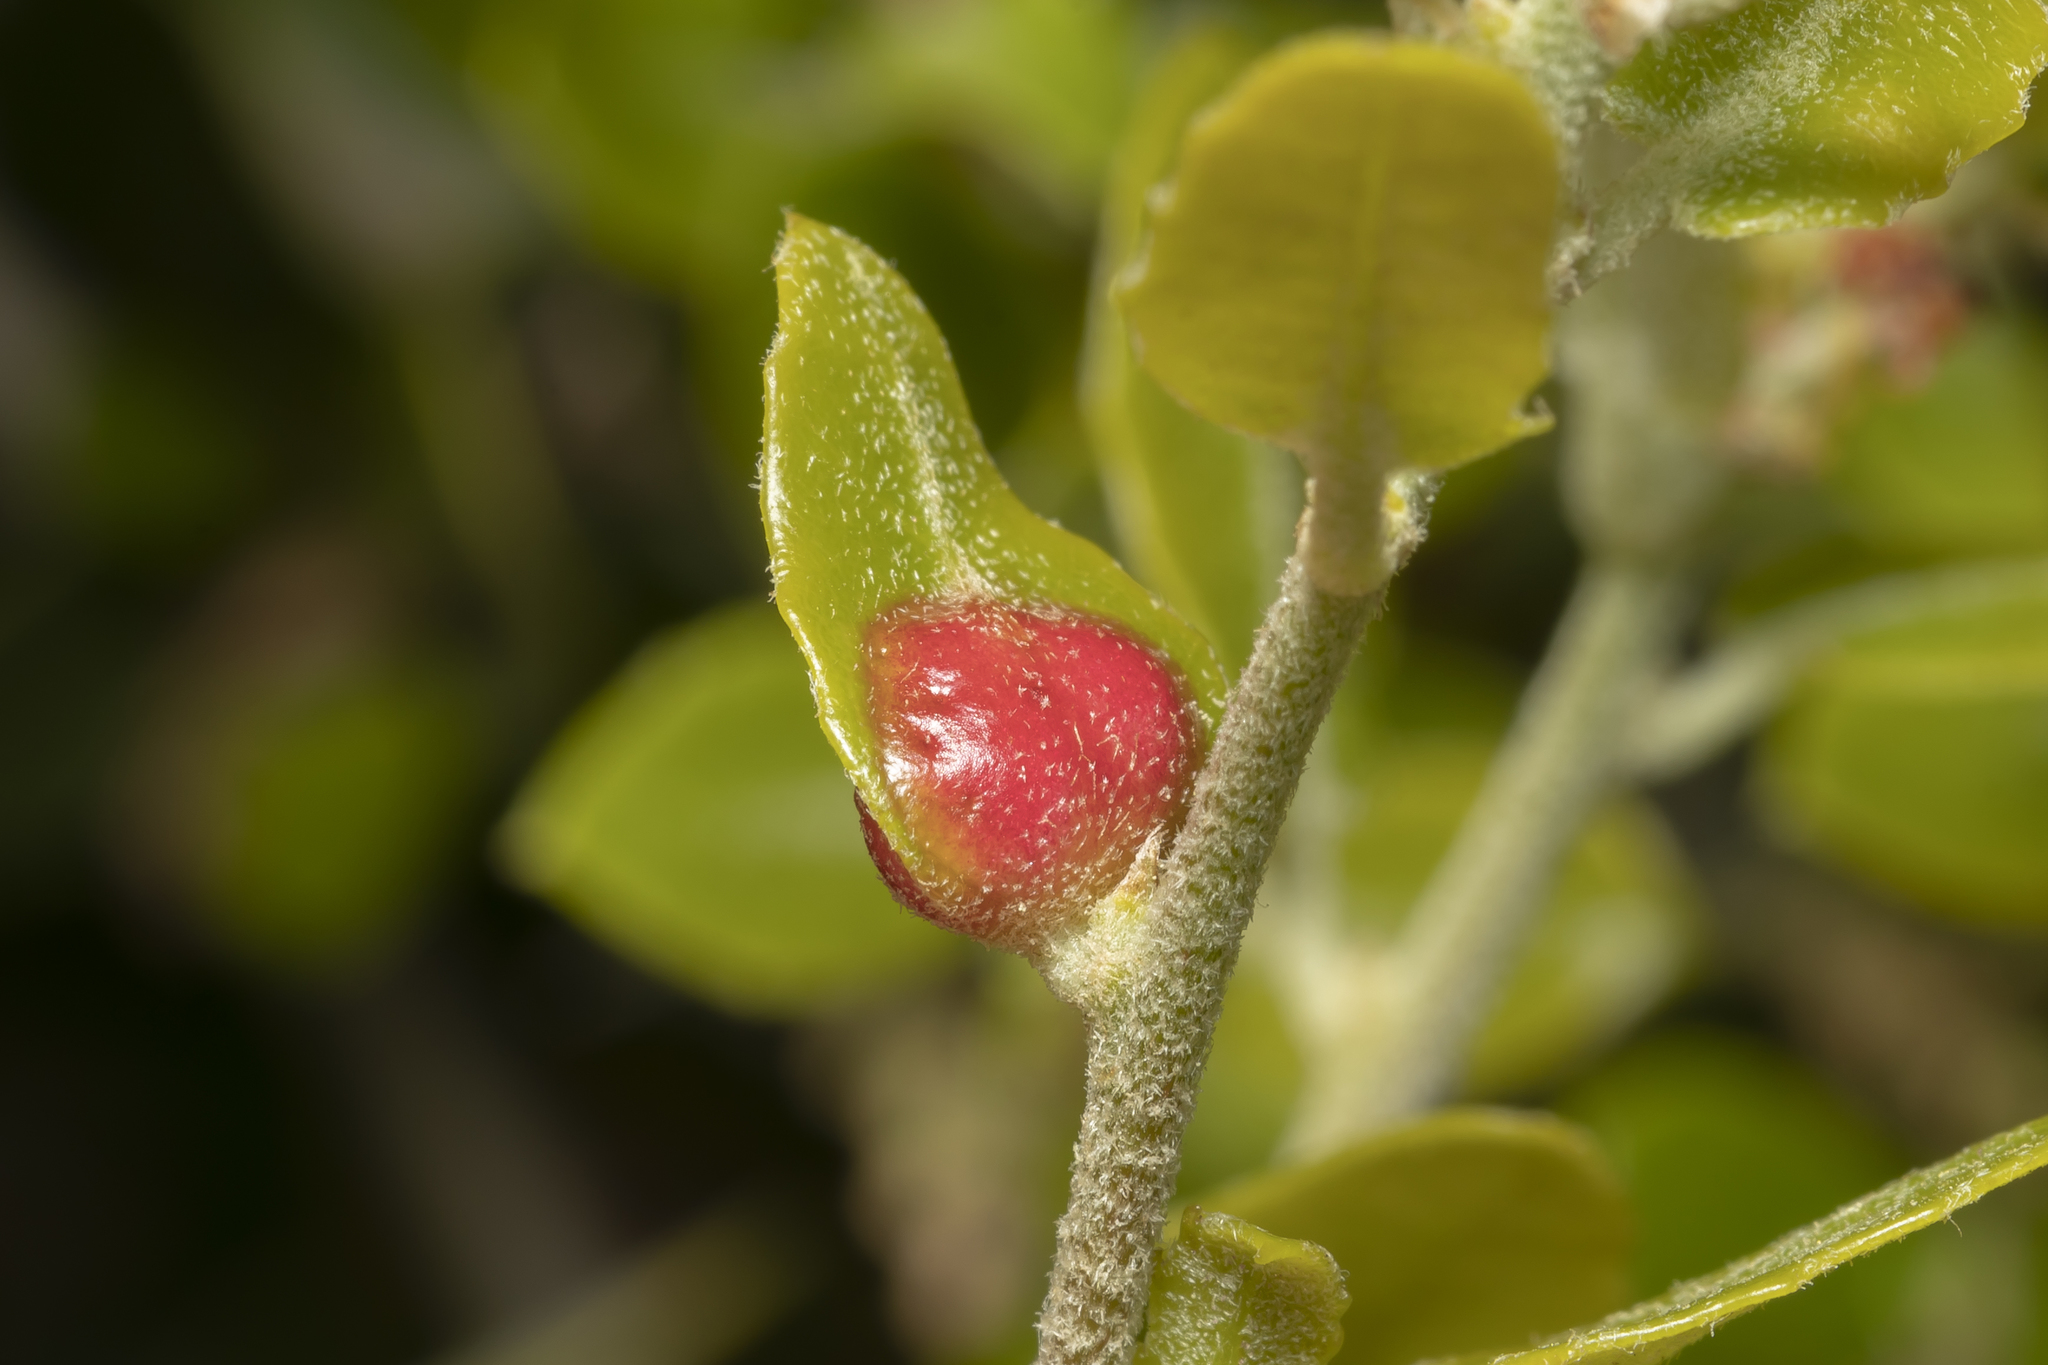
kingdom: Animalia
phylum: Arthropoda
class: Insecta
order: Hymenoptera
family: Cynipidae
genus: Plagiotrochus
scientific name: Plagiotrochus quercusilicis
